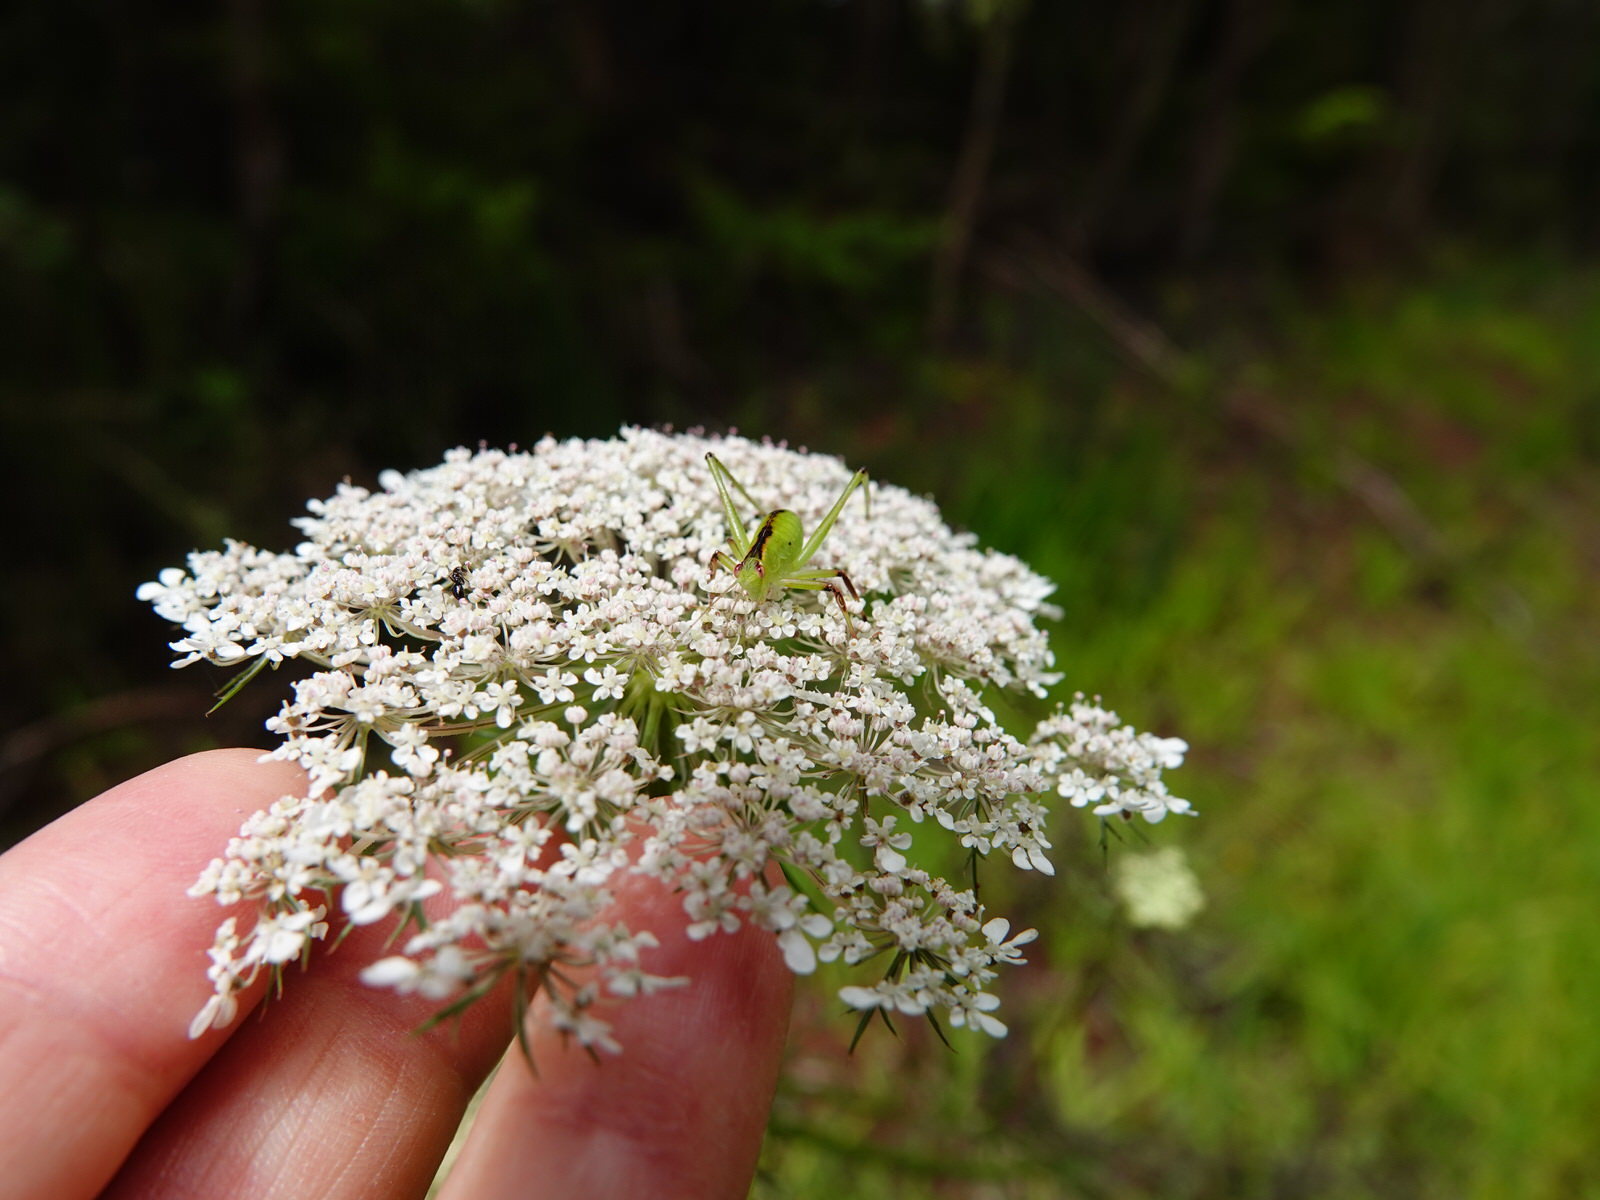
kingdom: Animalia
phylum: Arthropoda
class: Insecta
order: Orthoptera
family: Tettigoniidae
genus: Caedicia
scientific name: Caedicia simplex
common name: Common garden katydid
